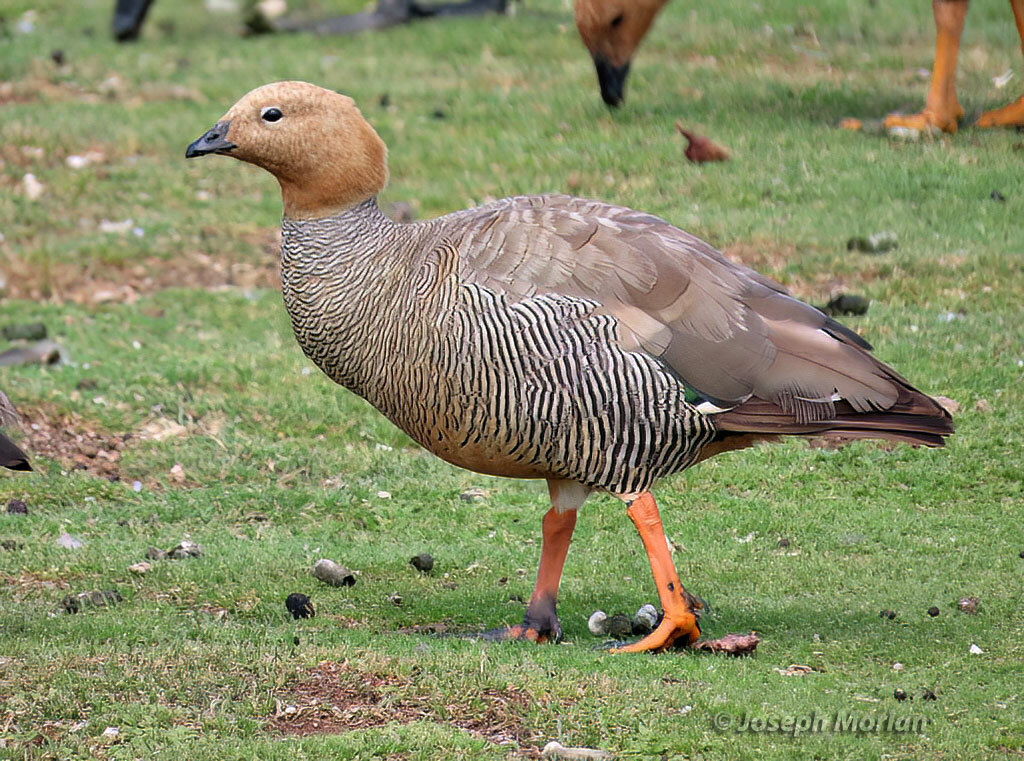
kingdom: Animalia
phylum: Chordata
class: Aves
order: Anseriformes
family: Anatidae
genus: Chloephaga
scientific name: Chloephaga rubidiceps
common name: Ruddy-headed goose
